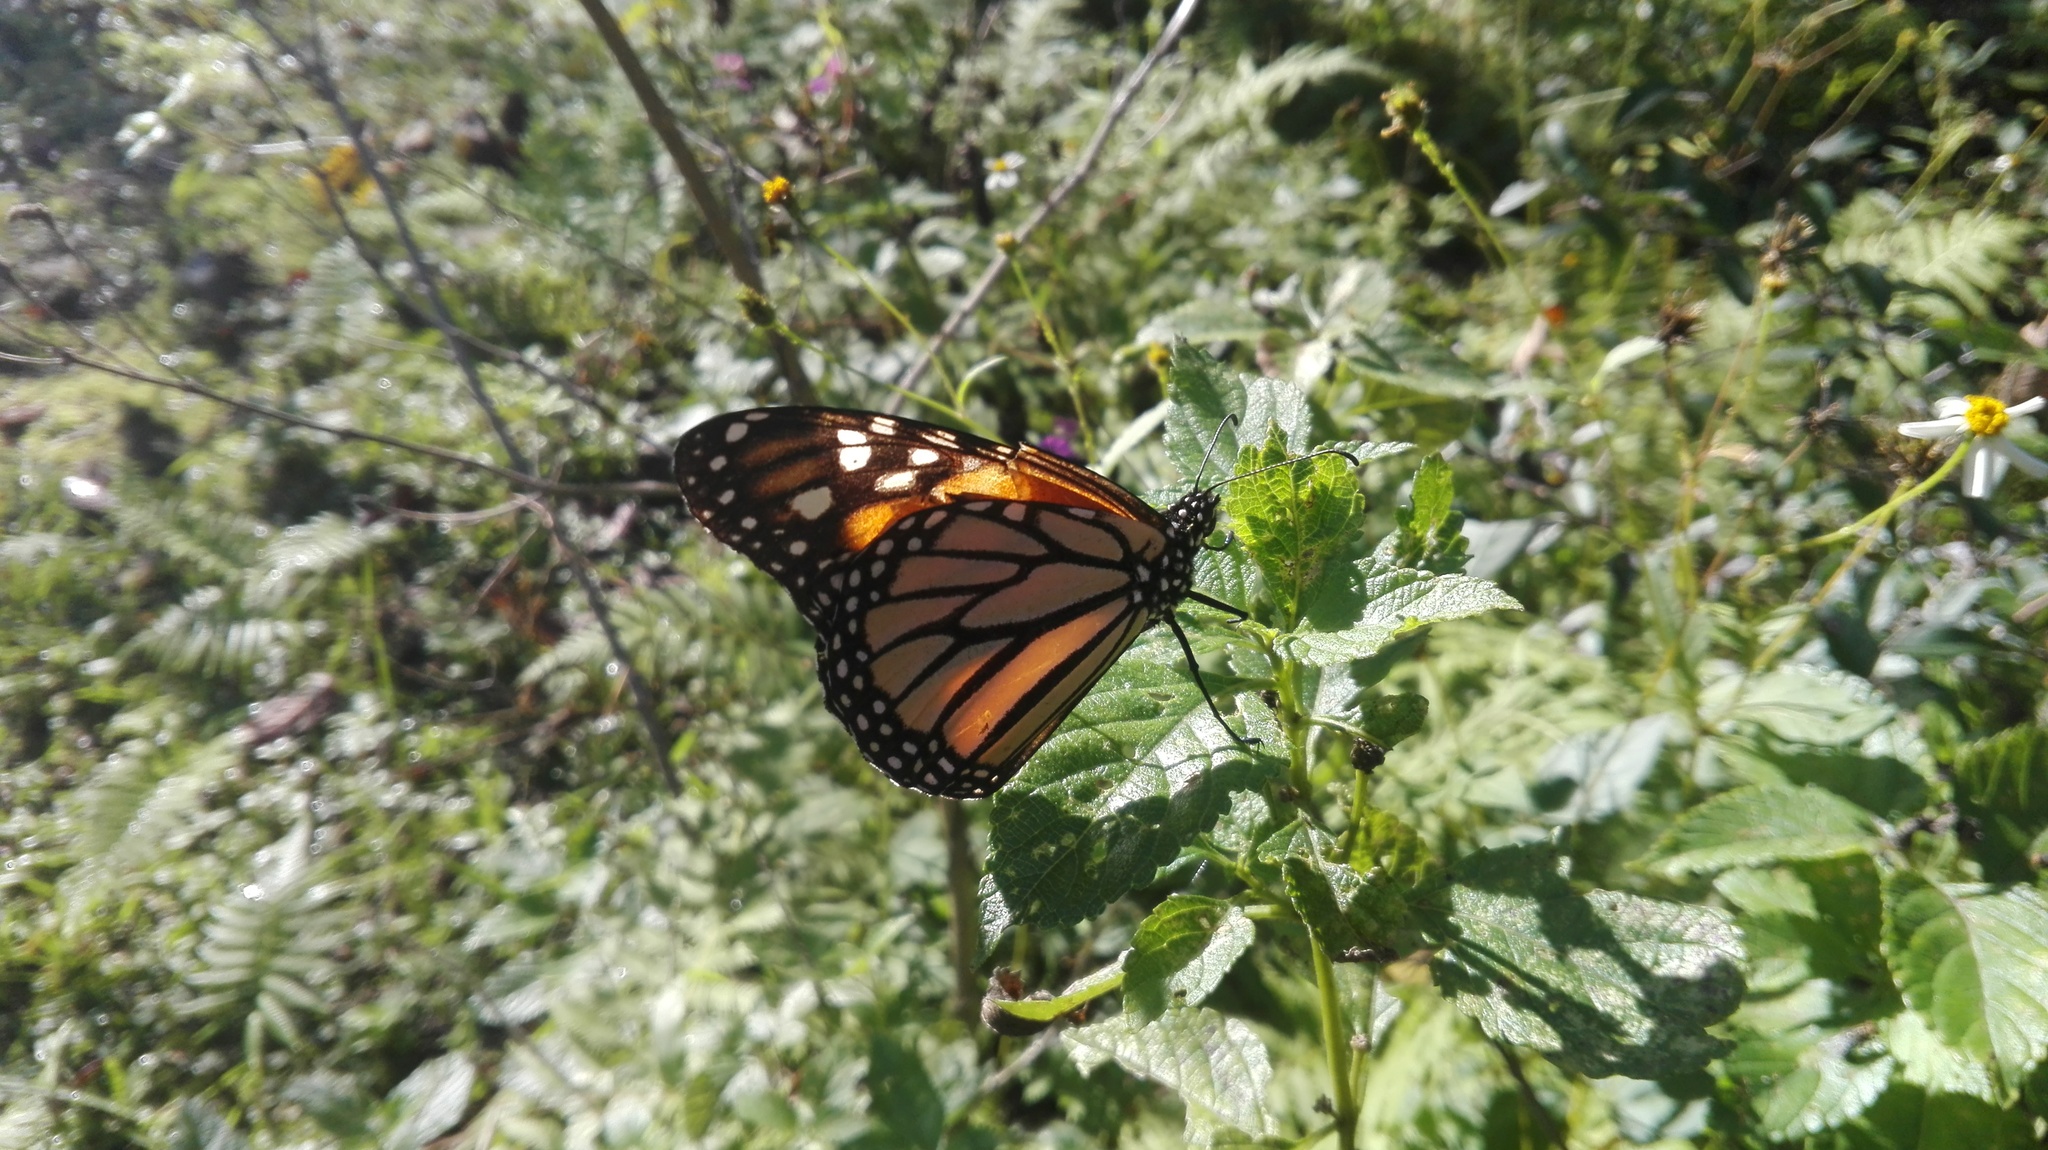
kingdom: Animalia
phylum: Arthropoda
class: Insecta
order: Lepidoptera
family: Nymphalidae
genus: Danaus
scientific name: Danaus plexippus
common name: Monarch
